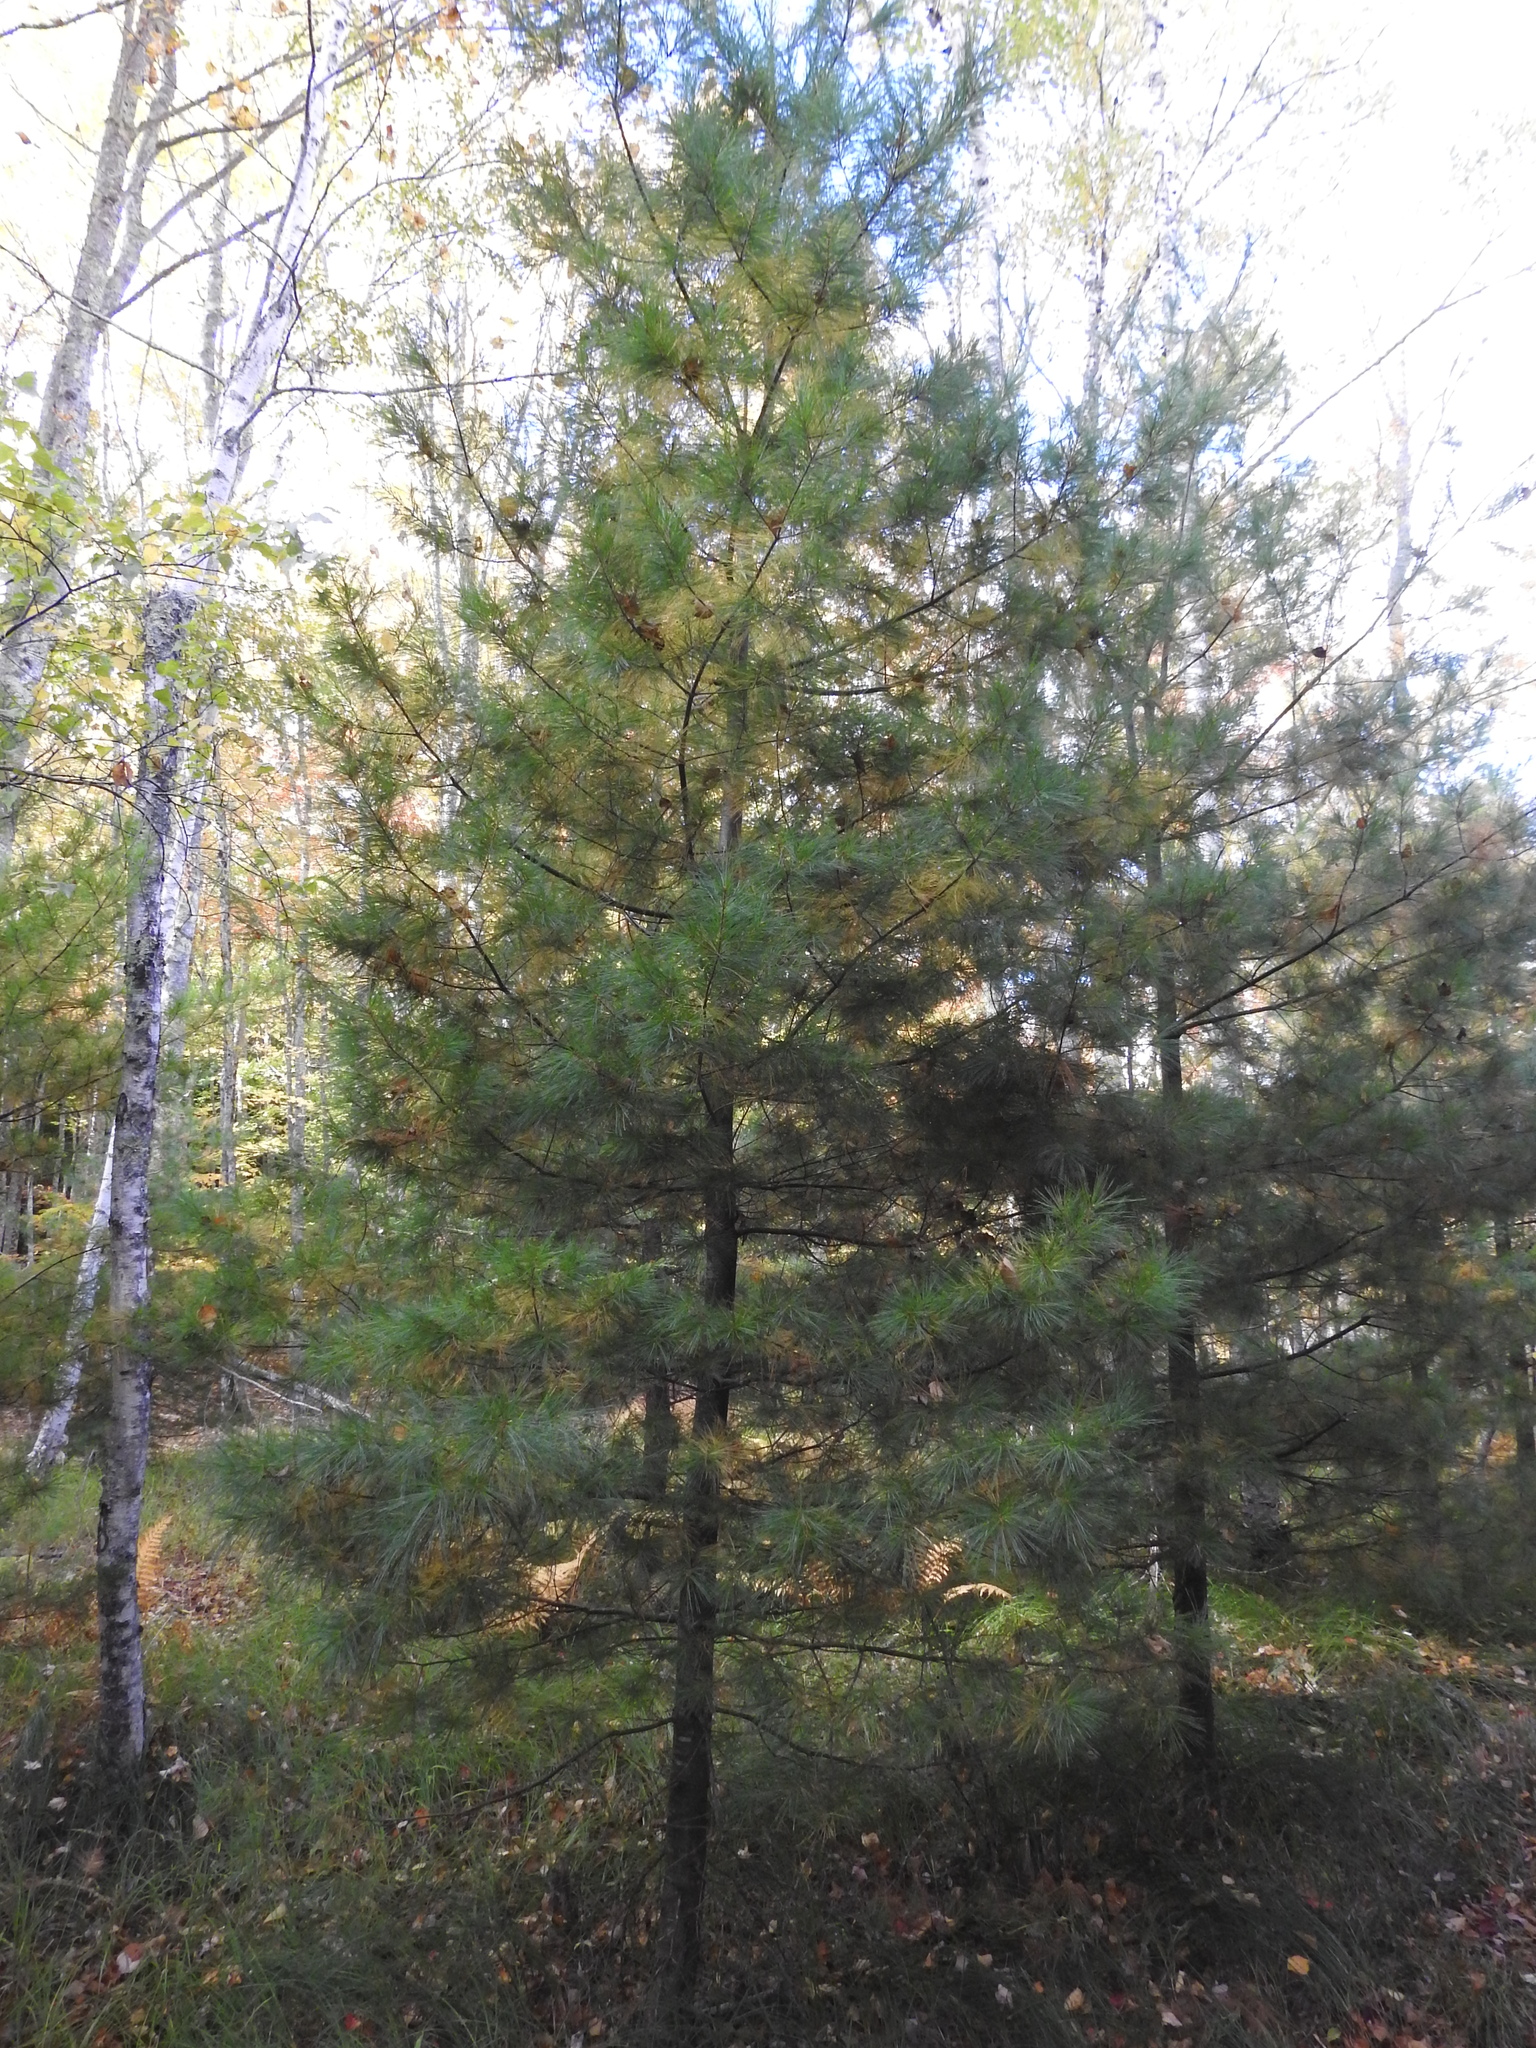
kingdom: Plantae
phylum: Tracheophyta
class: Pinopsida
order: Pinales
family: Pinaceae
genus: Pinus
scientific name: Pinus strobus
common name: Weymouth pine
